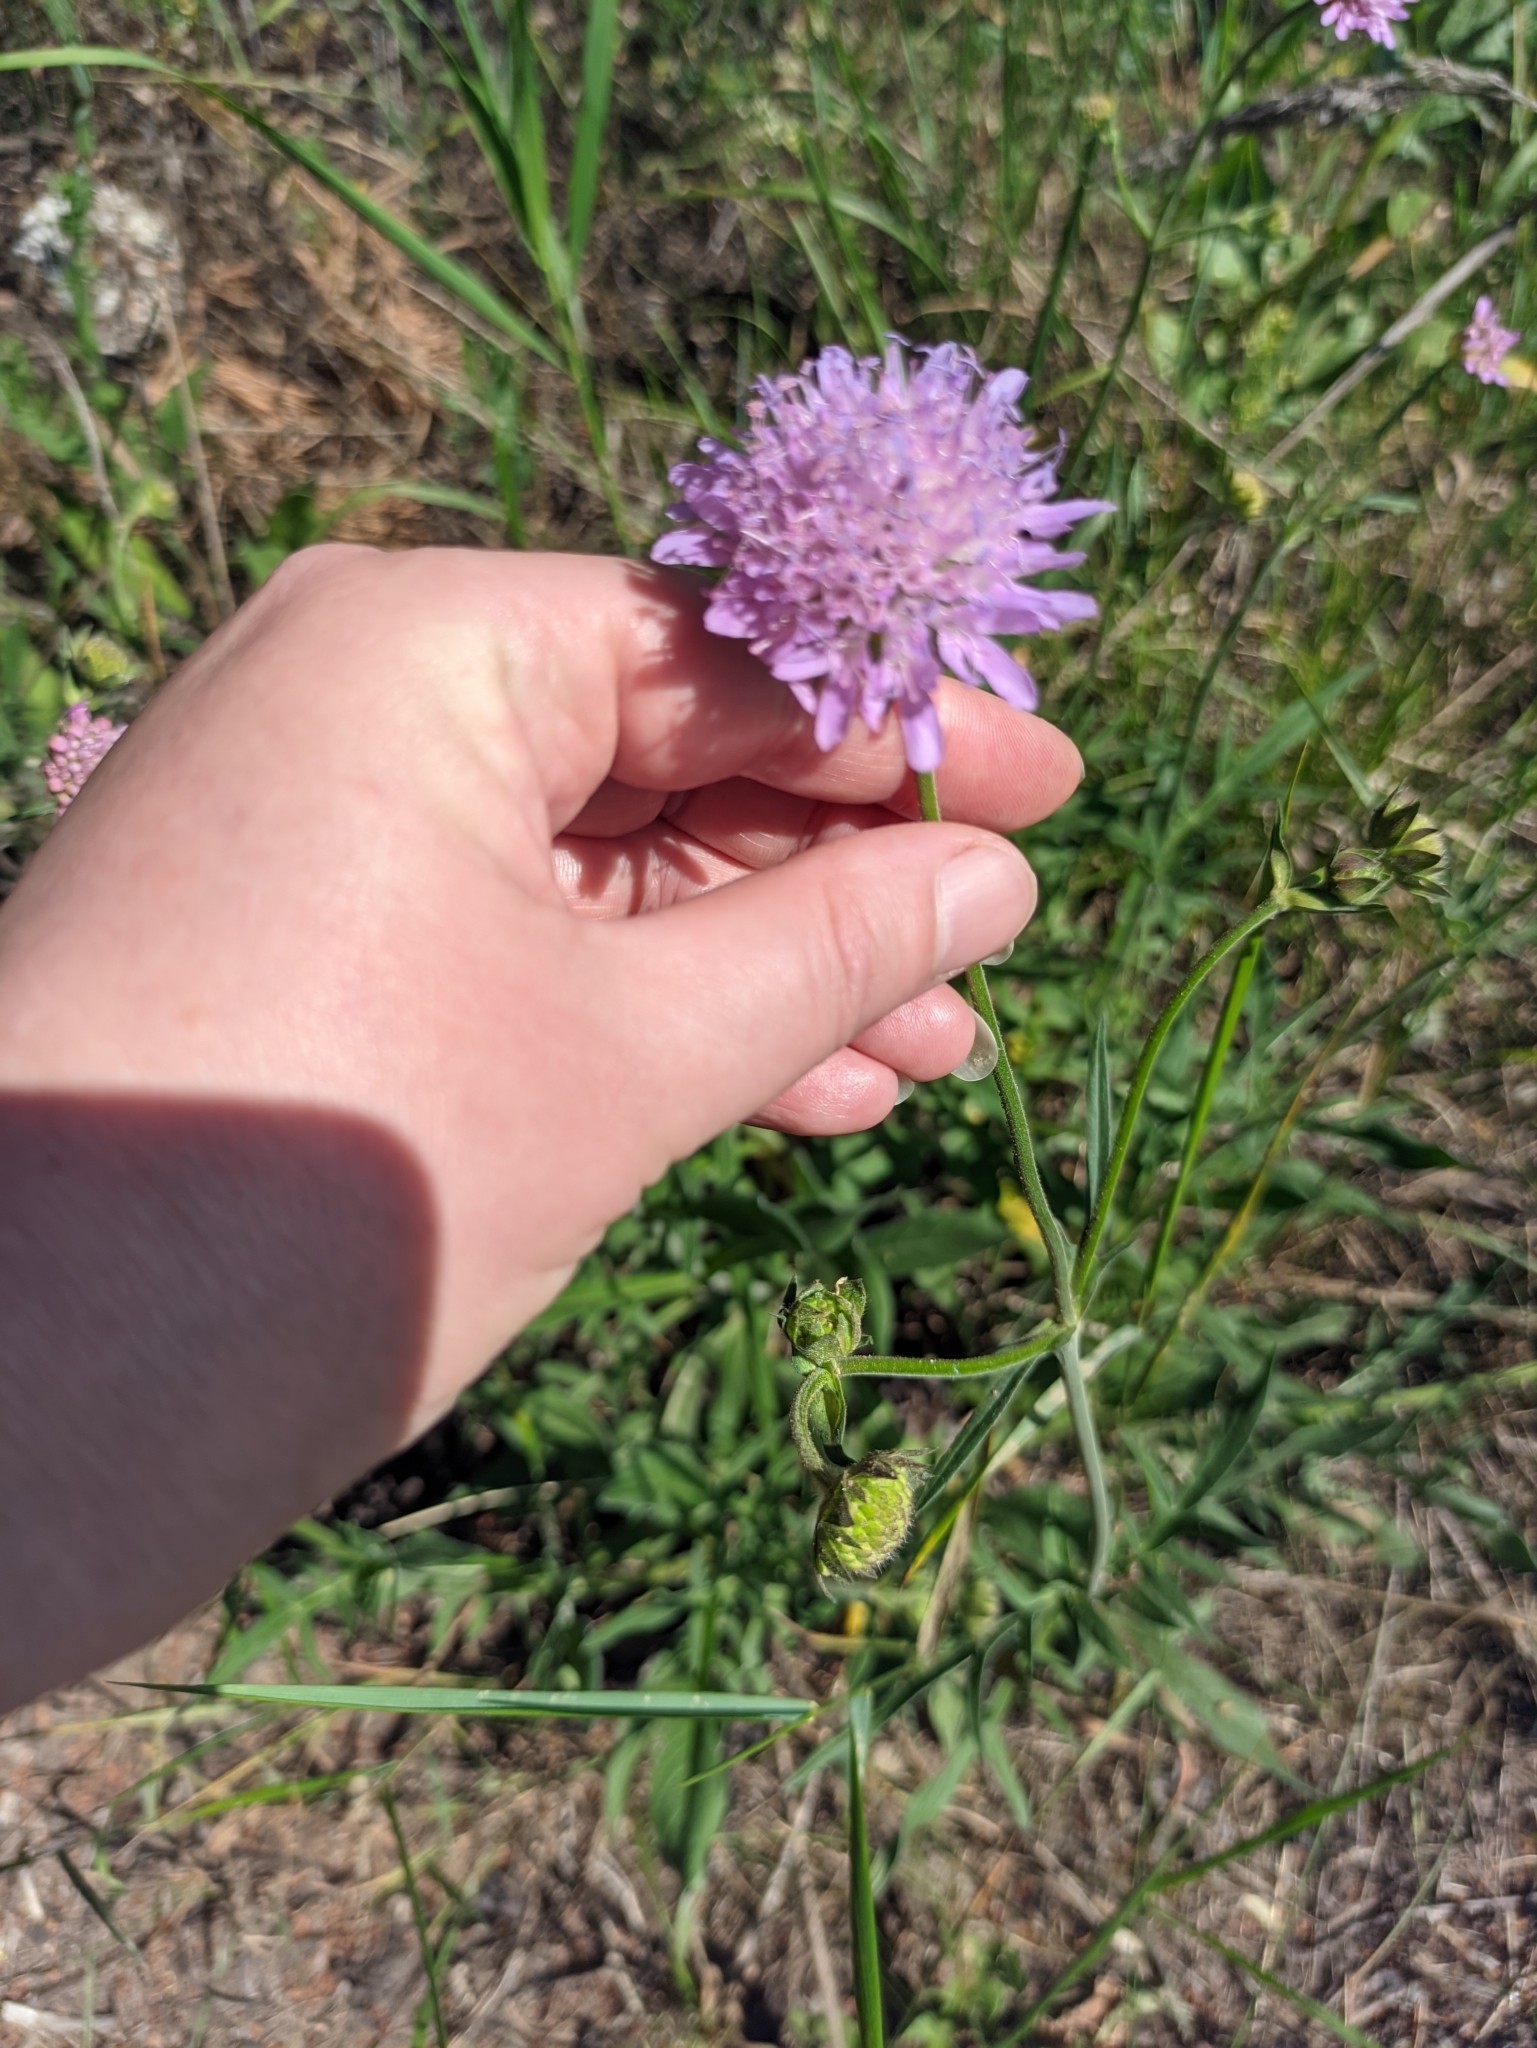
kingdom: Plantae
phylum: Tracheophyta
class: Magnoliopsida
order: Dipsacales
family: Caprifoliaceae
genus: Knautia
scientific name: Knautia arvensis
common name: Field scabiosa
